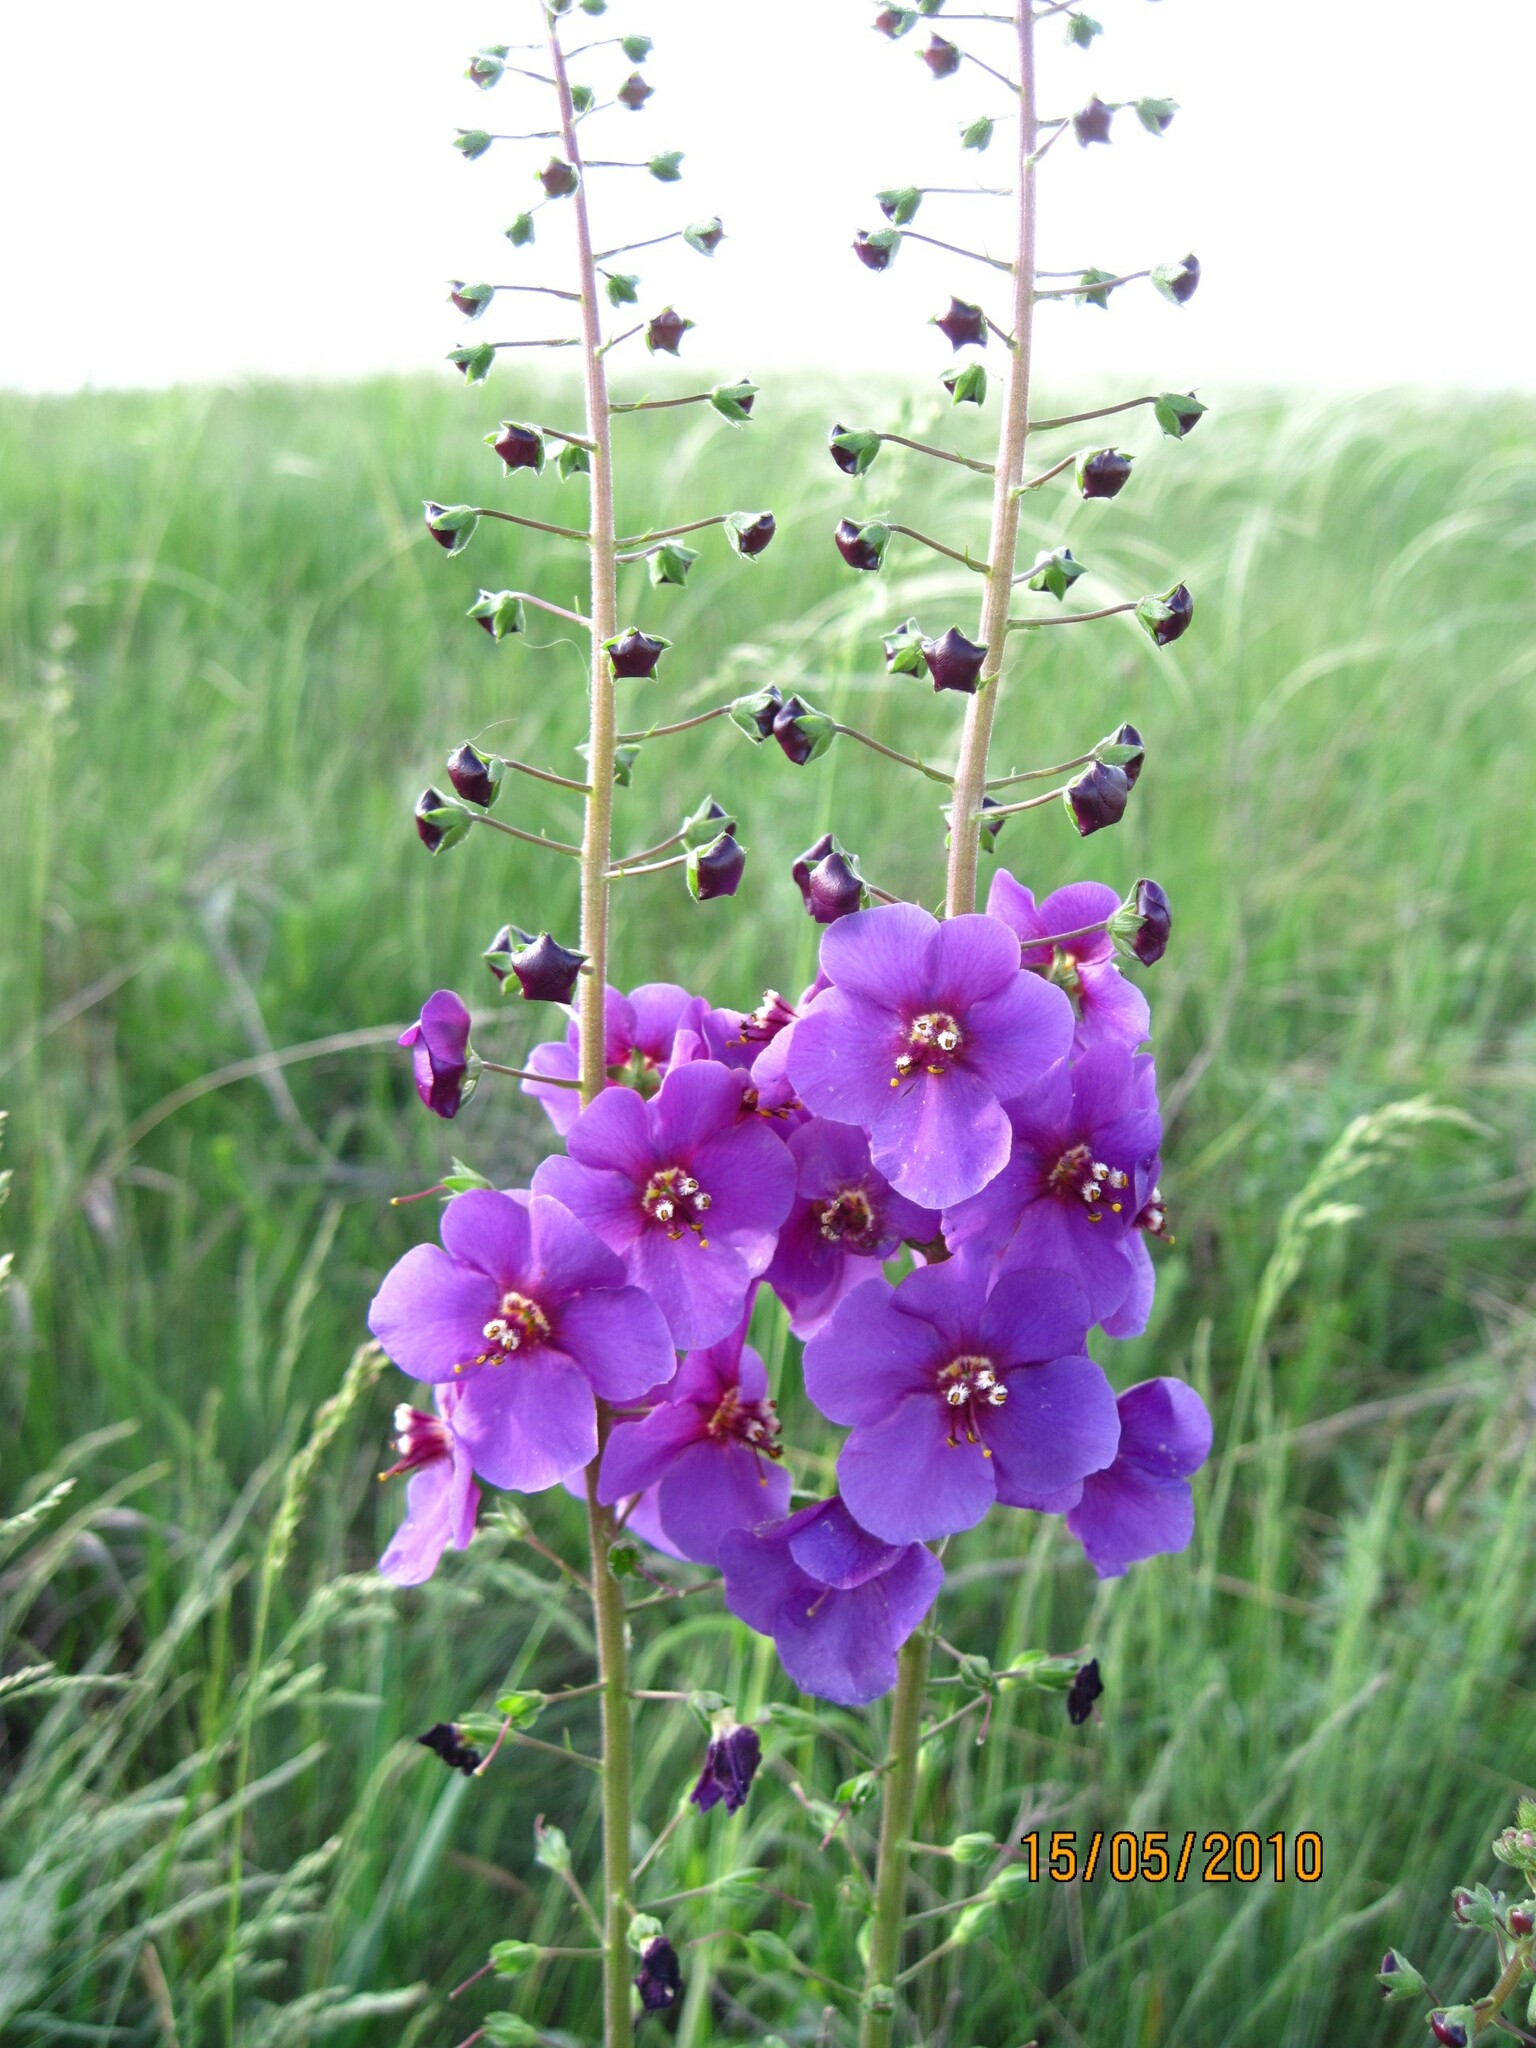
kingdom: Plantae
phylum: Tracheophyta
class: Magnoliopsida
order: Lamiales
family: Scrophulariaceae
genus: Verbascum
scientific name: Verbascum phoeniceum
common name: Purple mullein
